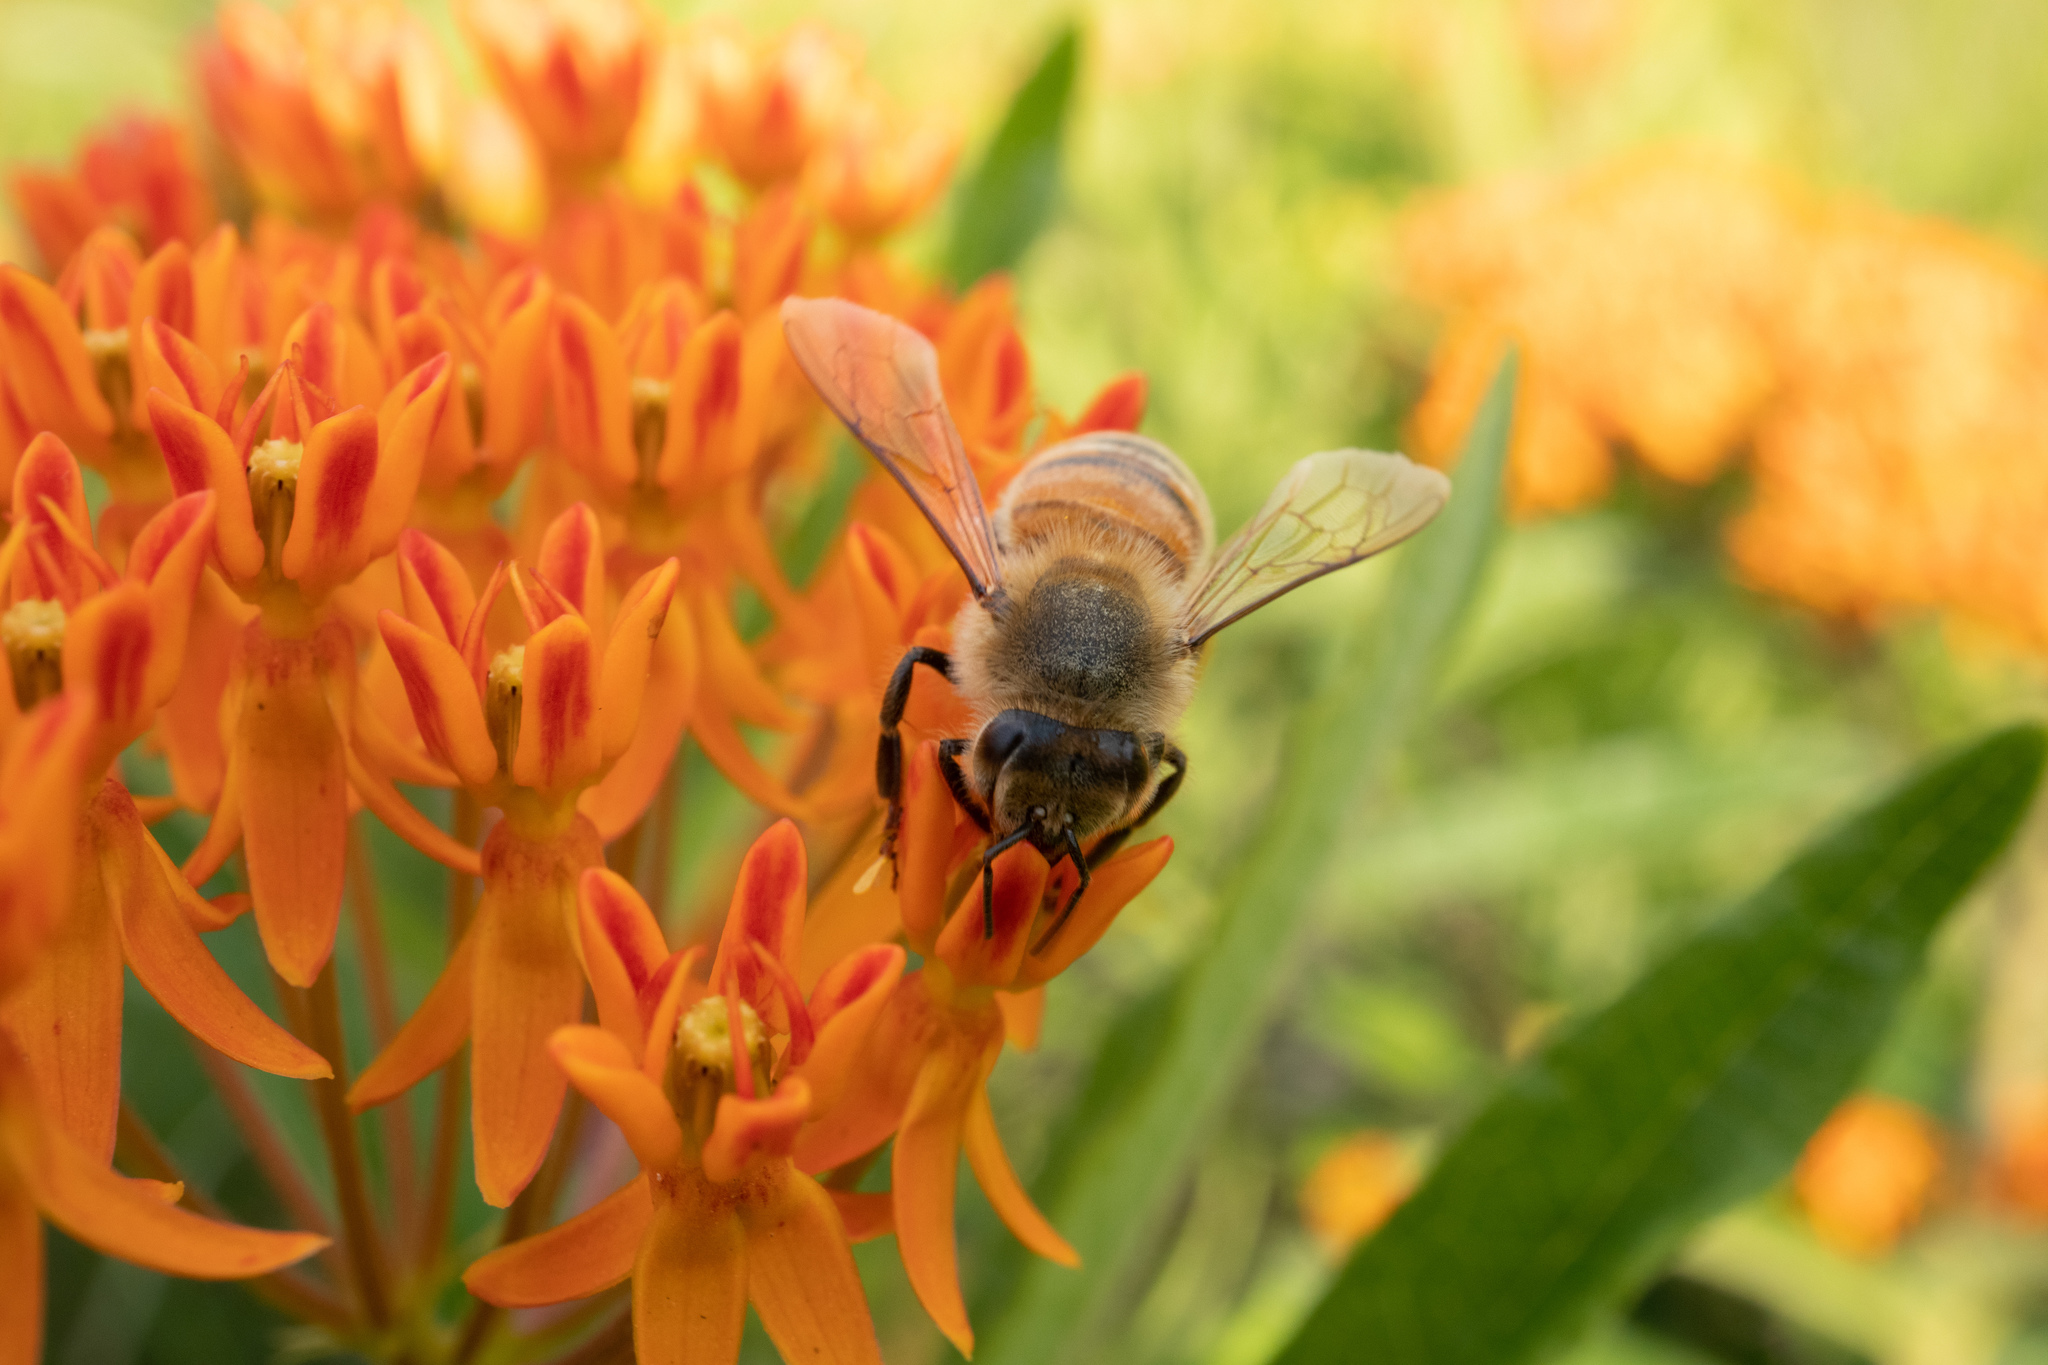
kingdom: Animalia
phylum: Arthropoda
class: Insecta
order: Hymenoptera
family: Apidae
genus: Apis
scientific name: Apis mellifera
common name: Honey bee
